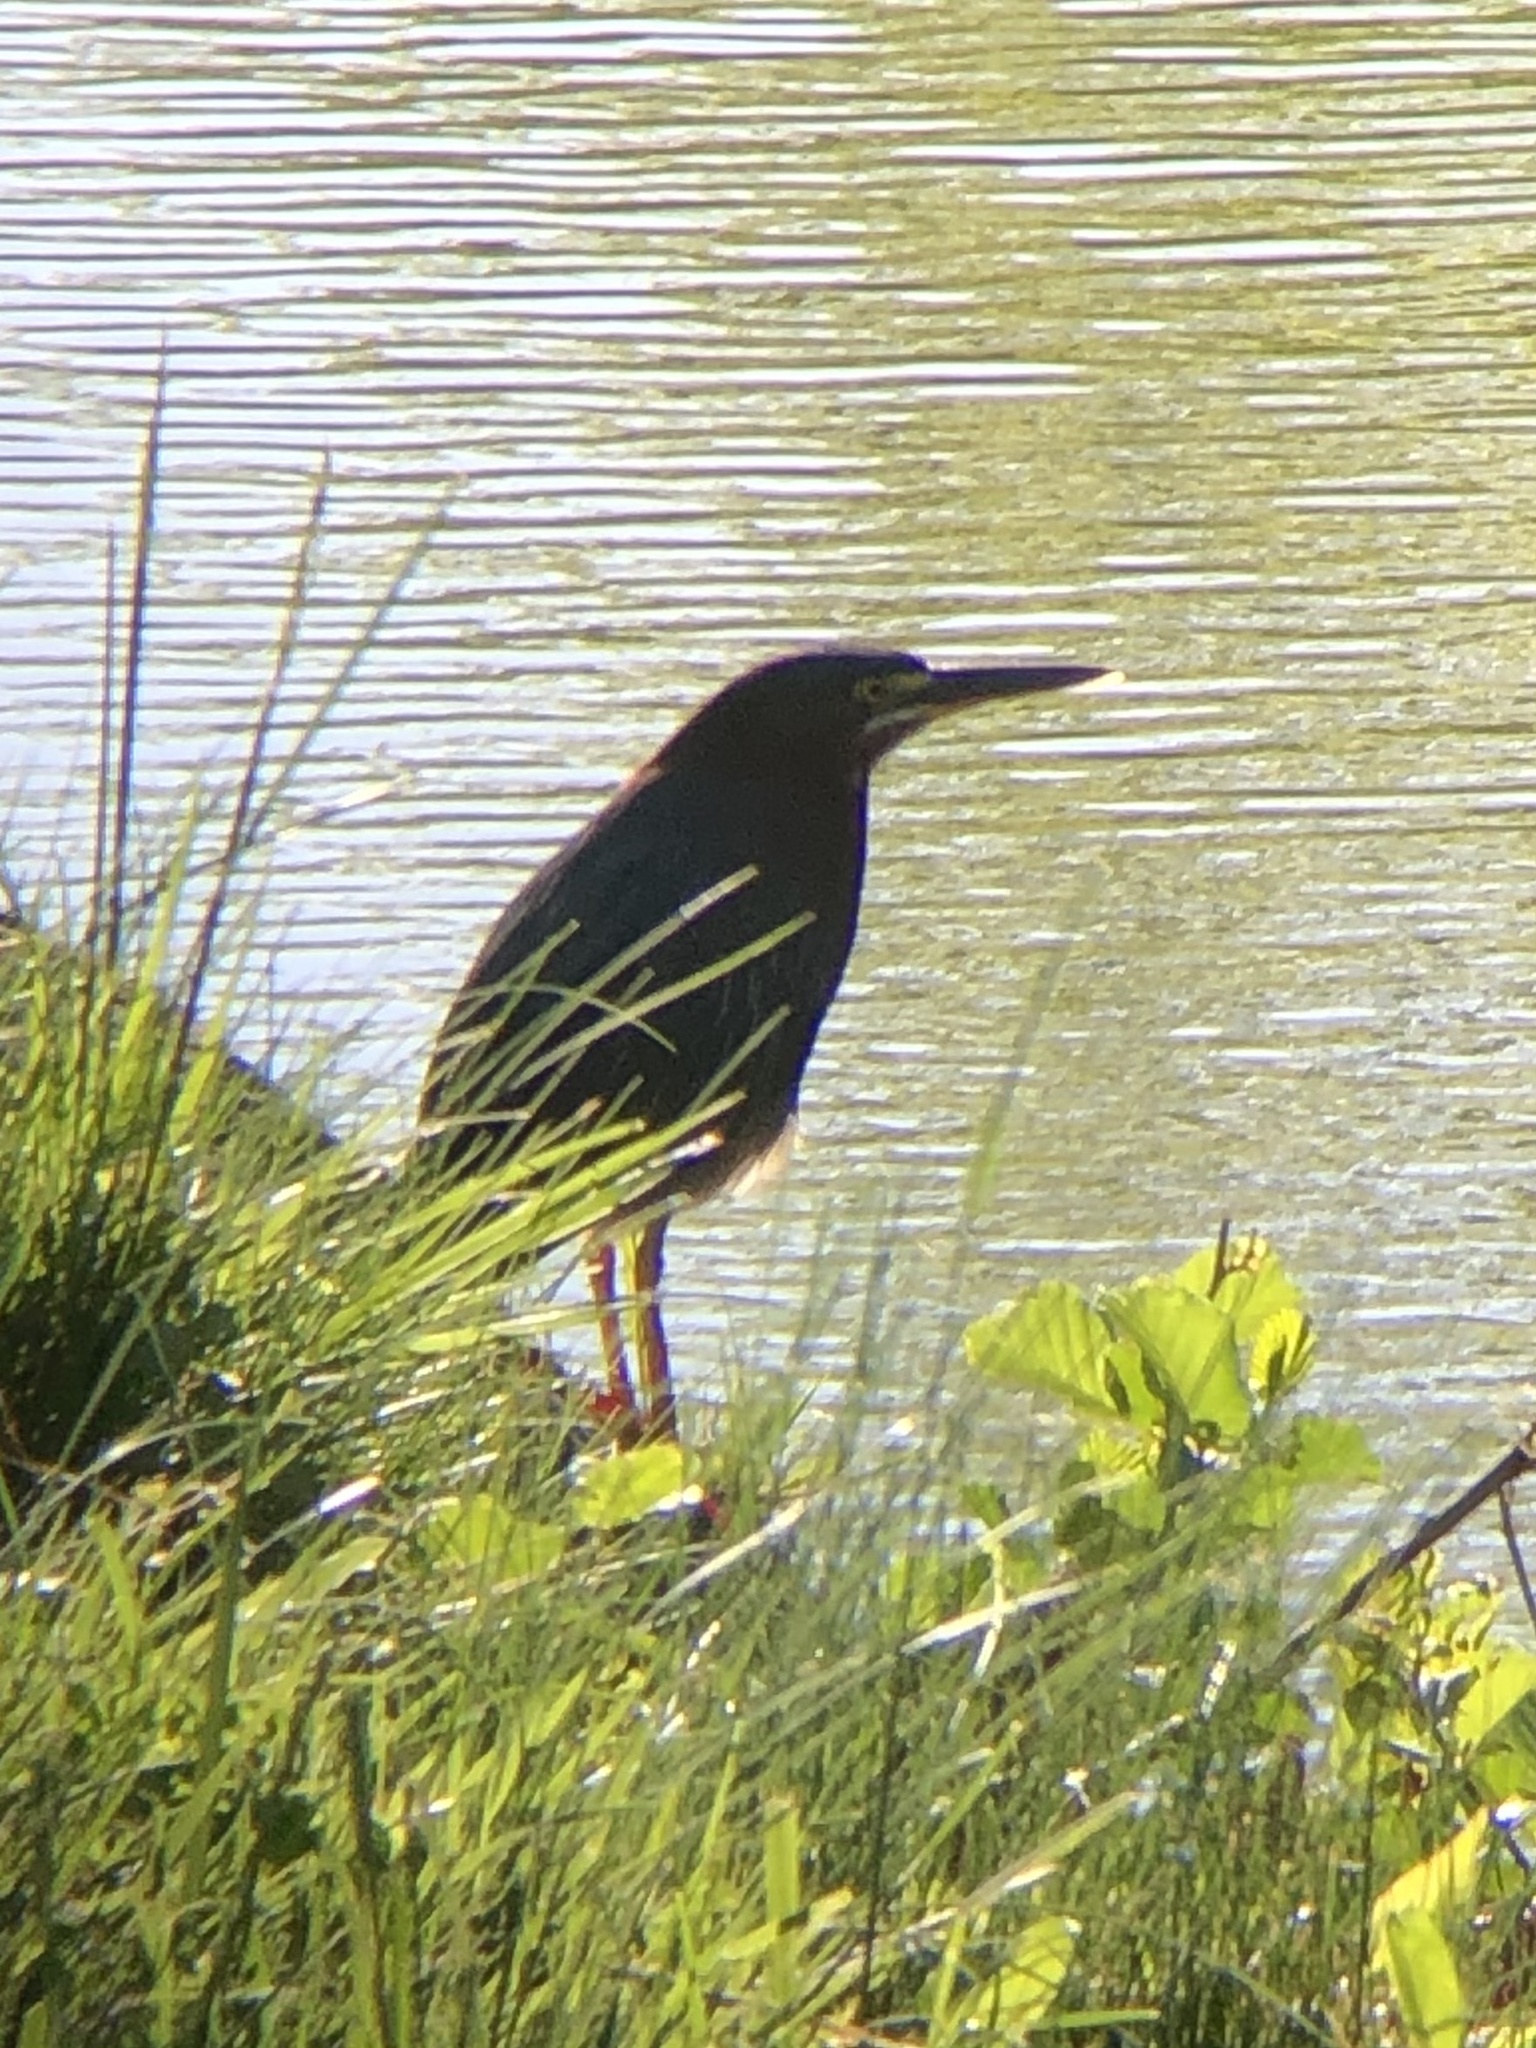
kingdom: Animalia
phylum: Chordata
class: Aves
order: Pelecaniformes
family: Ardeidae
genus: Butorides
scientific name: Butorides virescens
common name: Green heron
